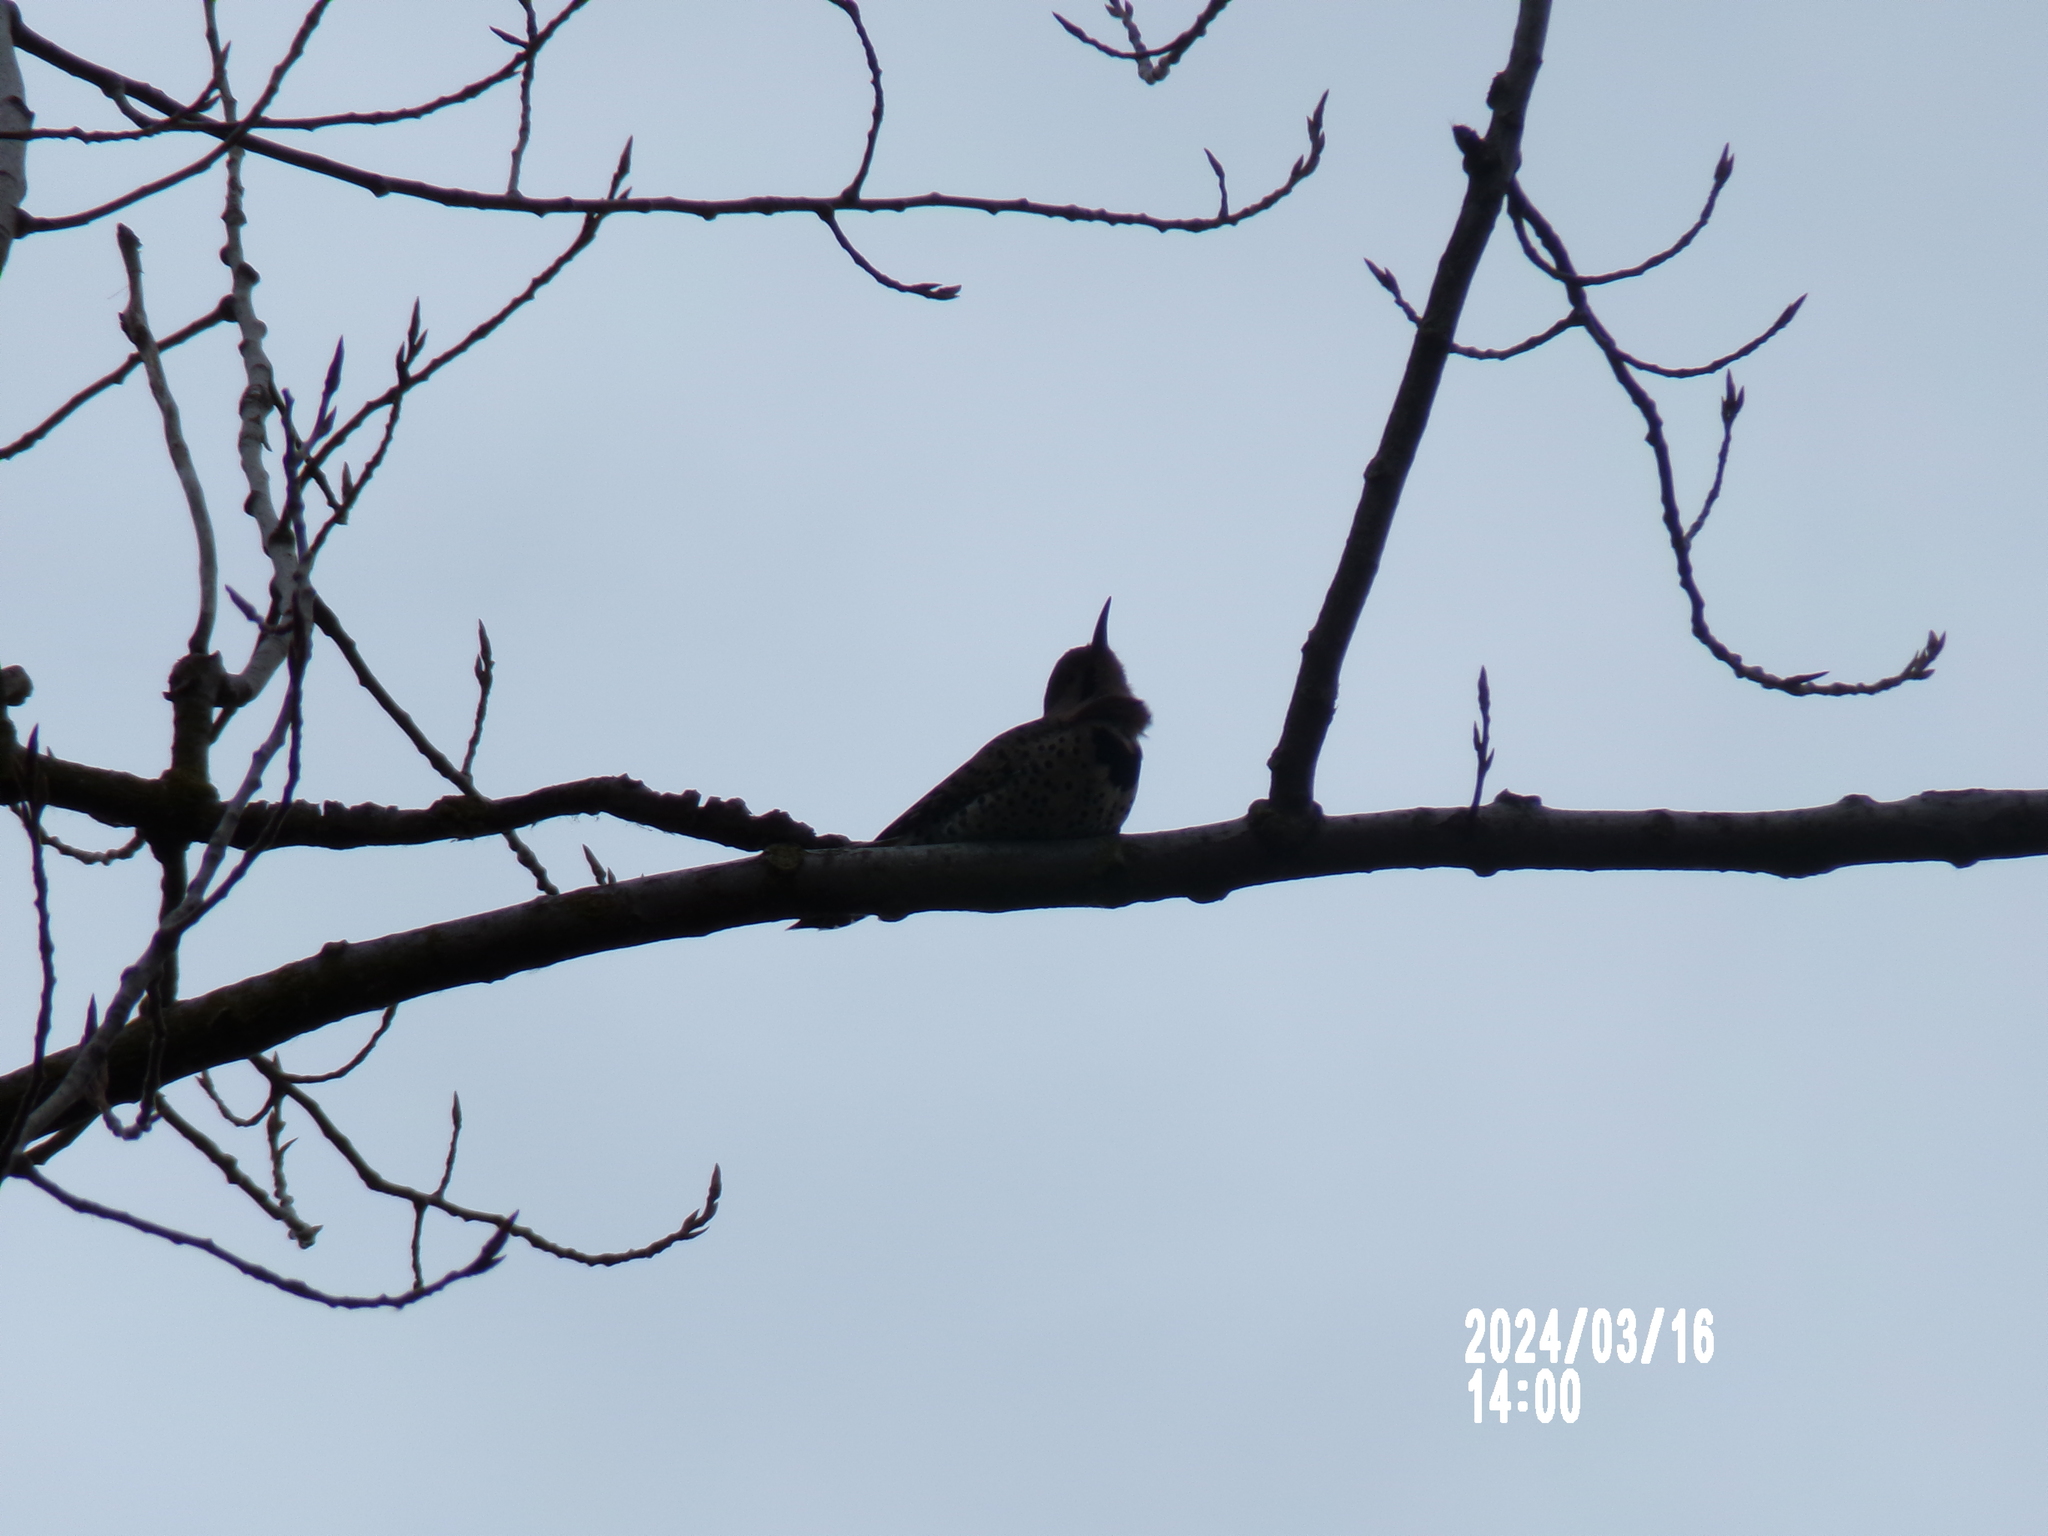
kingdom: Animalia
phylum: Chordata
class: Aves
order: Piciformes
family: Picidae
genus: Colaptes
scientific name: Colaptes auratus
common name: Northern flicker
